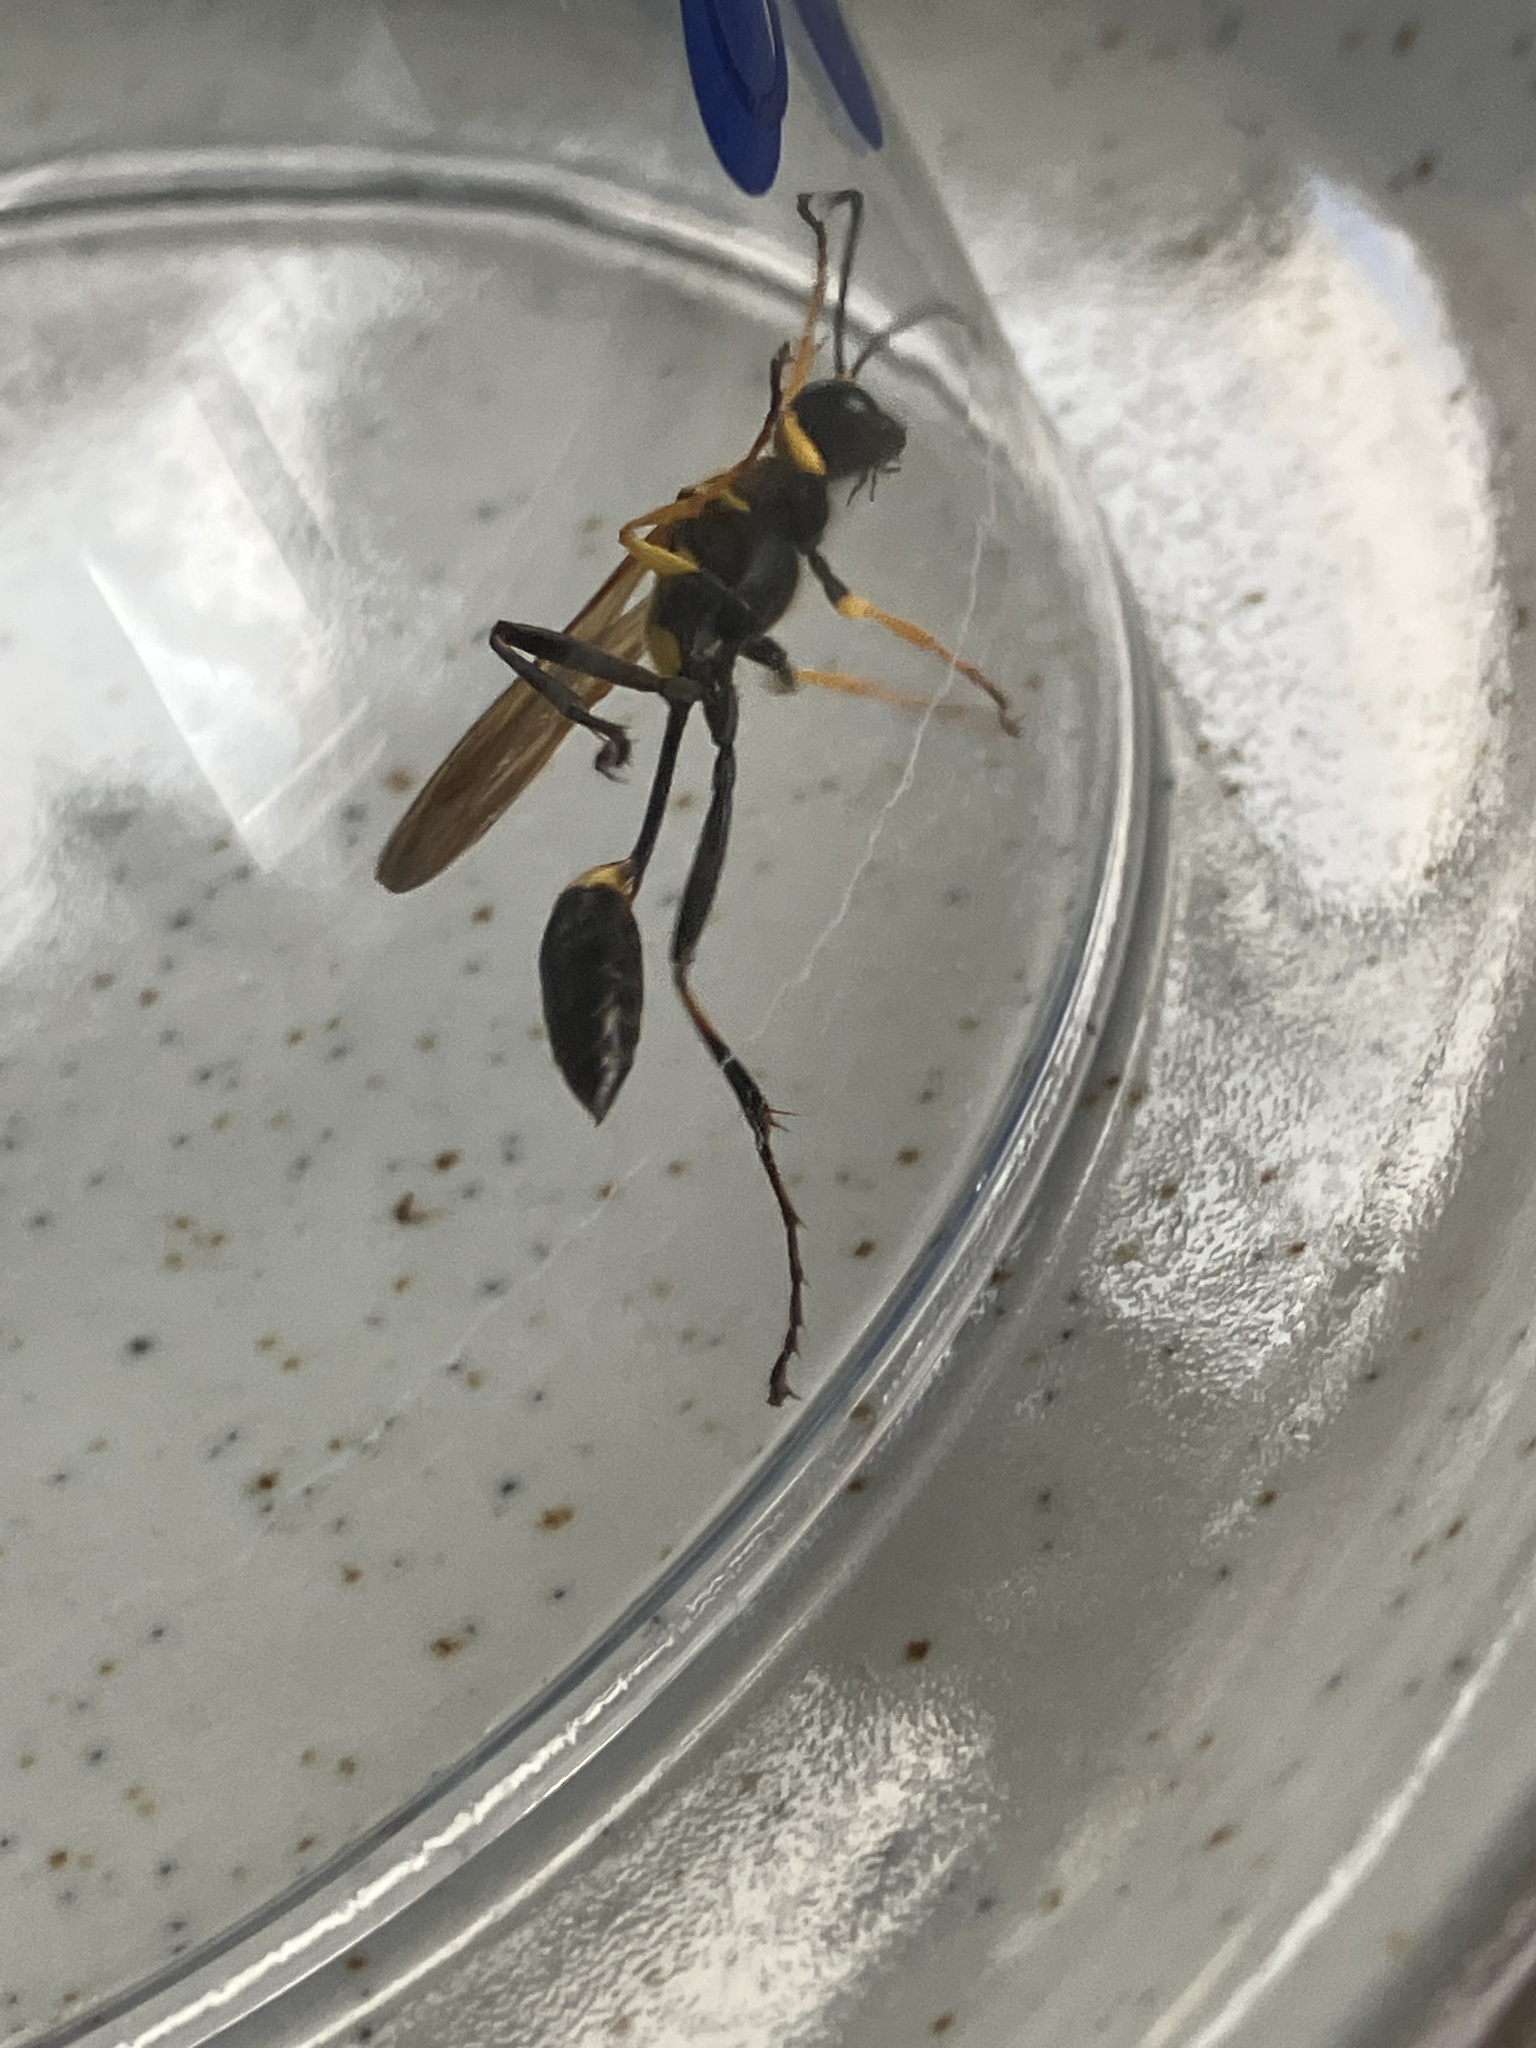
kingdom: Animalia
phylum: Arthropoda
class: Insecta
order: Hymenoptera
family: Sphecidae
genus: Sceliphron
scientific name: Sceliphron assimile
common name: Clayman's mud dauber
